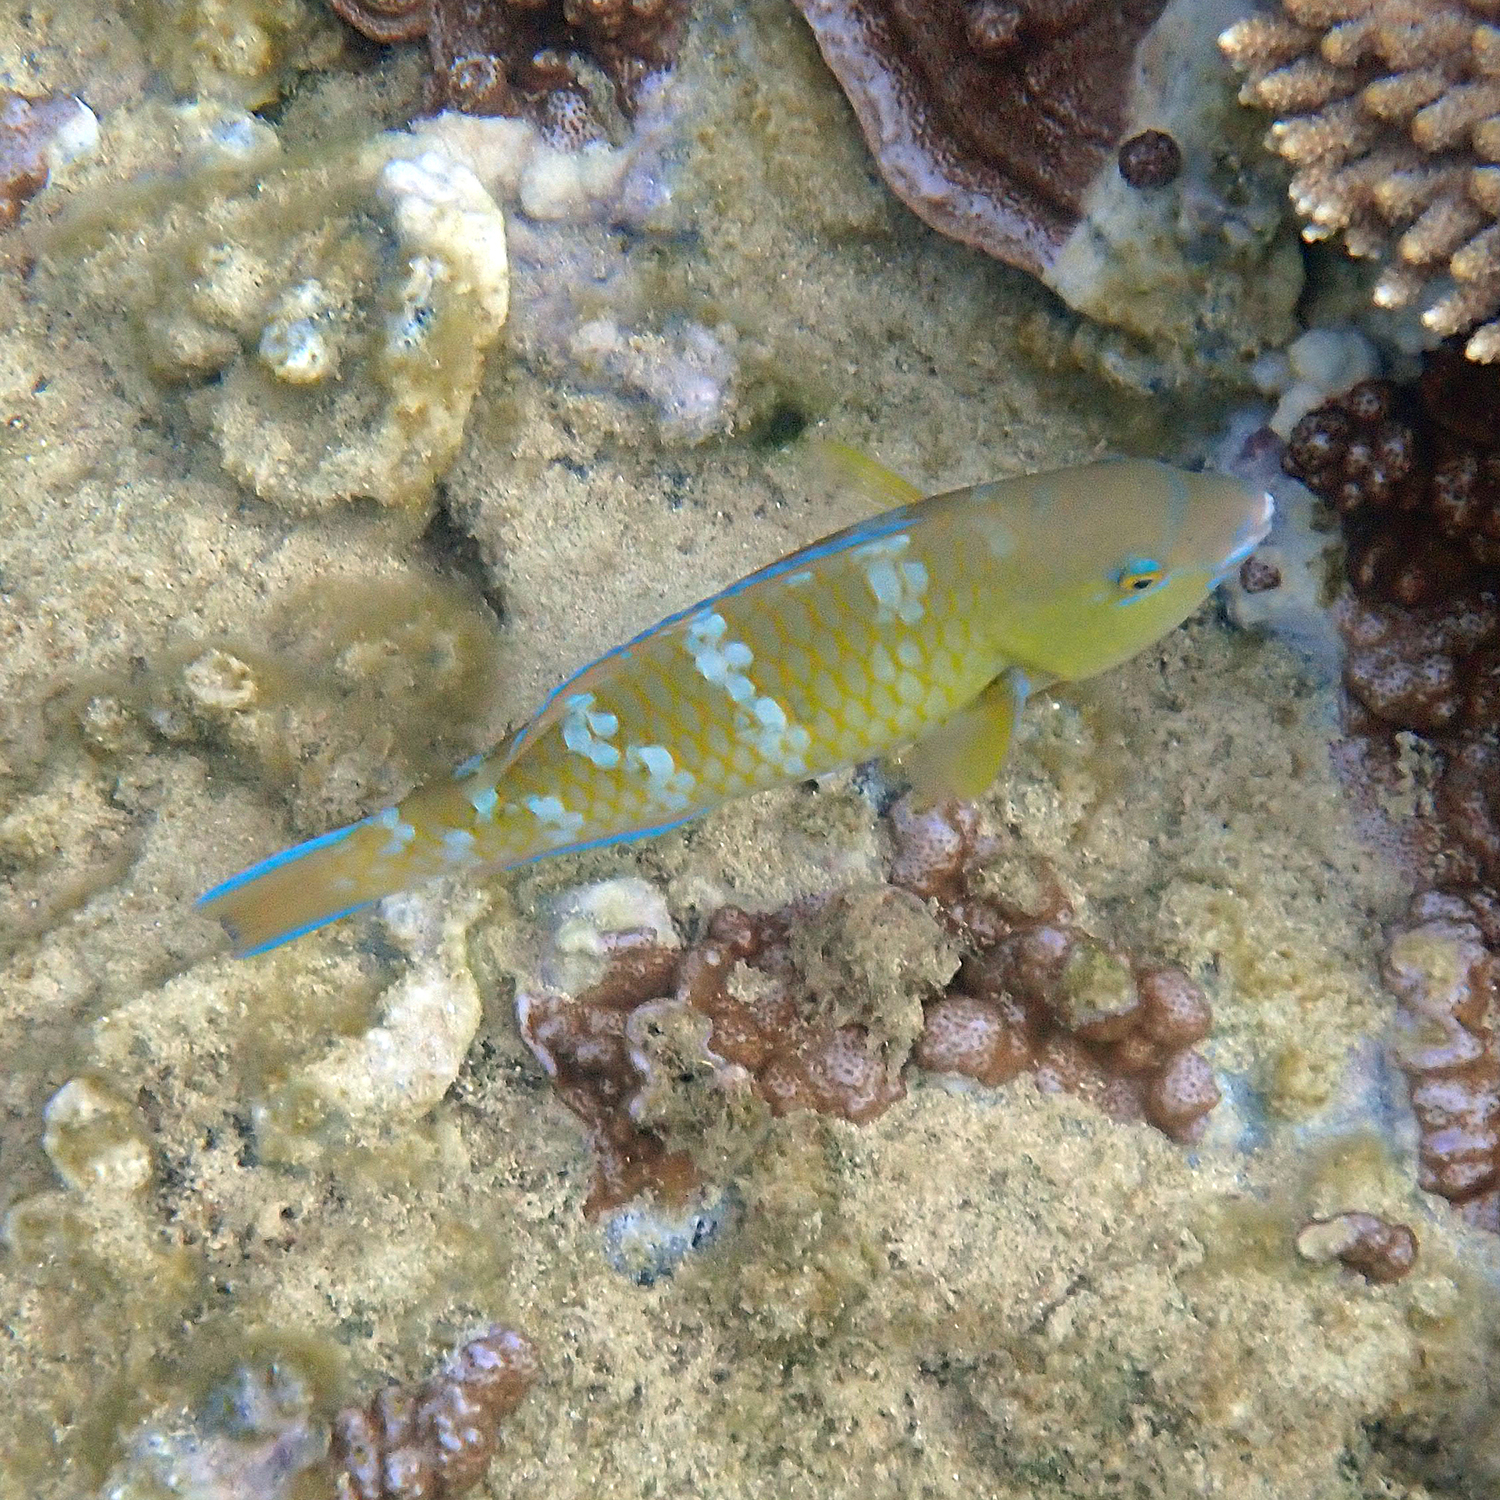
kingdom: Animalia
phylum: Chordata
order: Perciformes
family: Scaridae
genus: Scarus
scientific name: Scarus ghobban
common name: Blue-barred parrotfish
